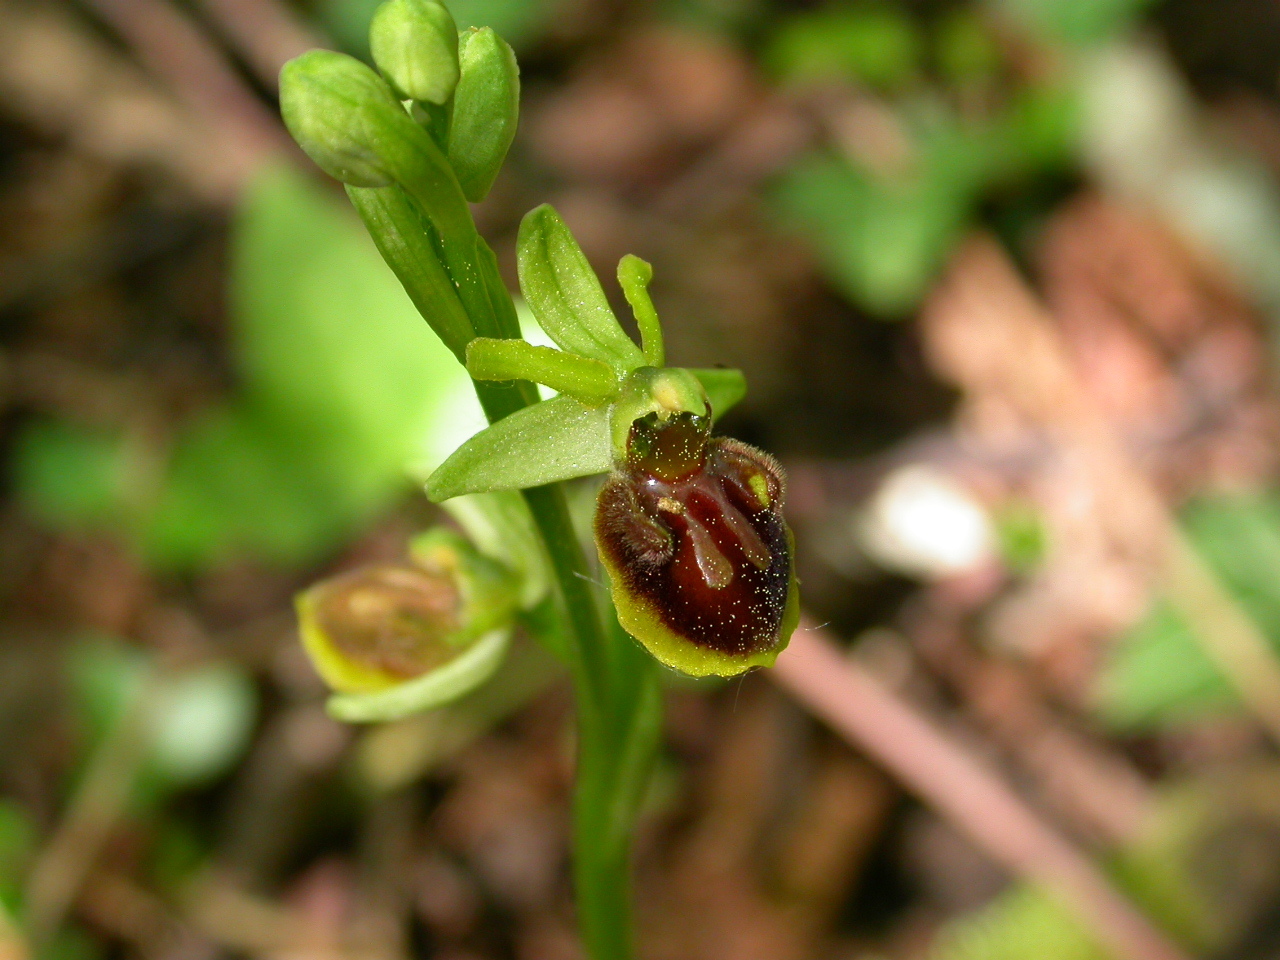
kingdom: Plantae
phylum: Tracheophyta
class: Liliopsida
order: Asparagales
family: Orchidaceae
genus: Ophrys
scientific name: Ophrys sphegodes
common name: Early spider-orchid
